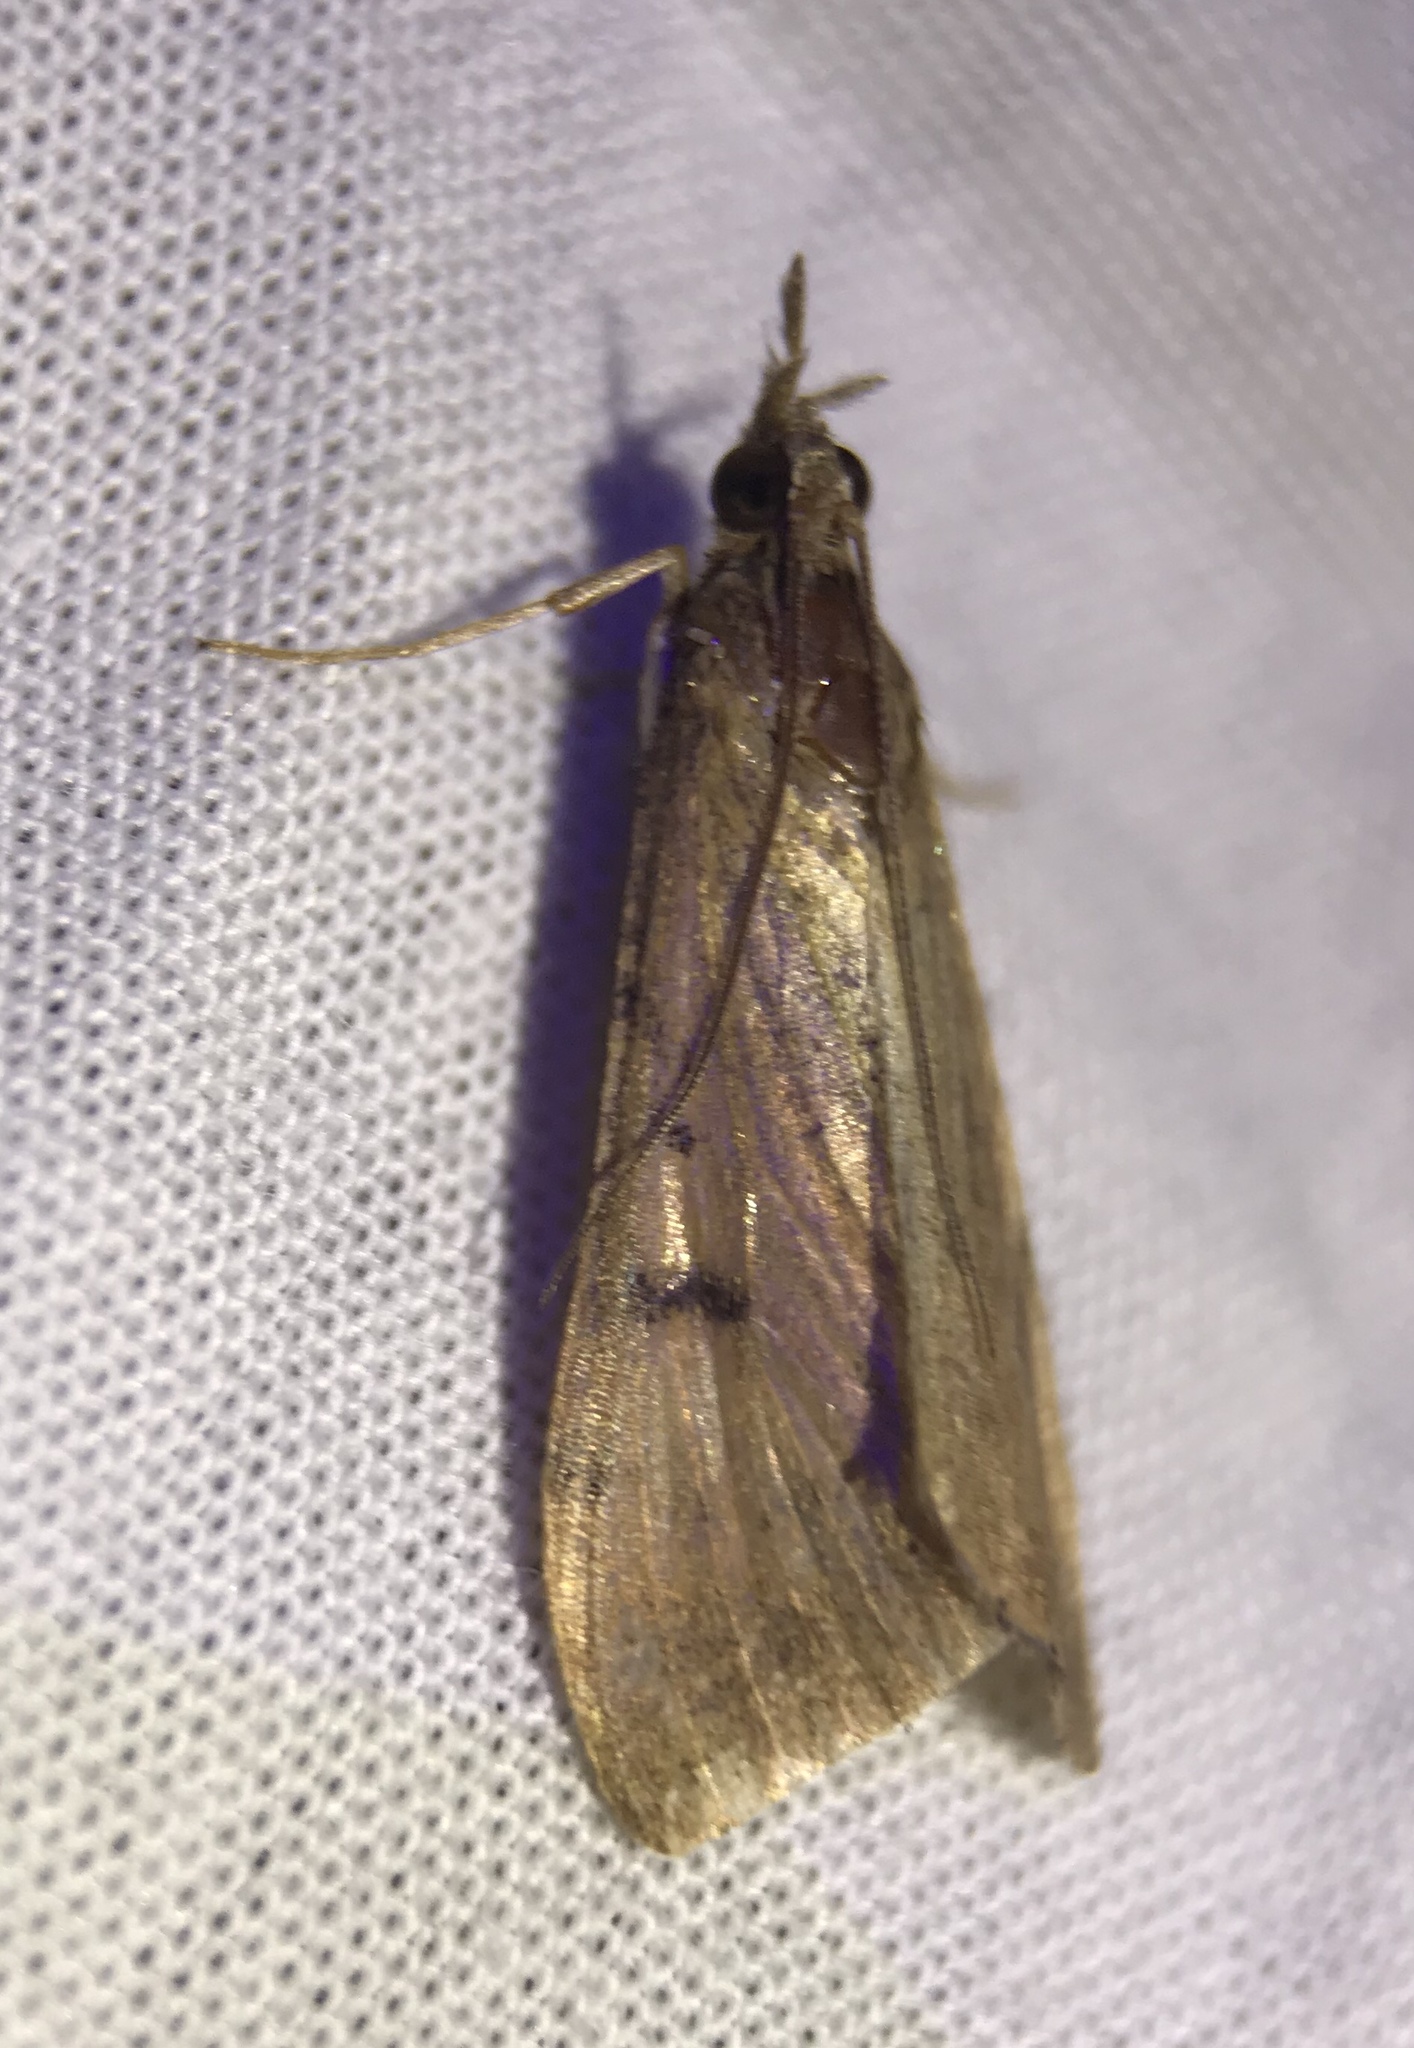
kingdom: Animalia
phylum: Arthropoda
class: Insecta
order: Lepidoptera
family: Crambidae
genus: Achyra
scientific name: Achyra affinitalis
